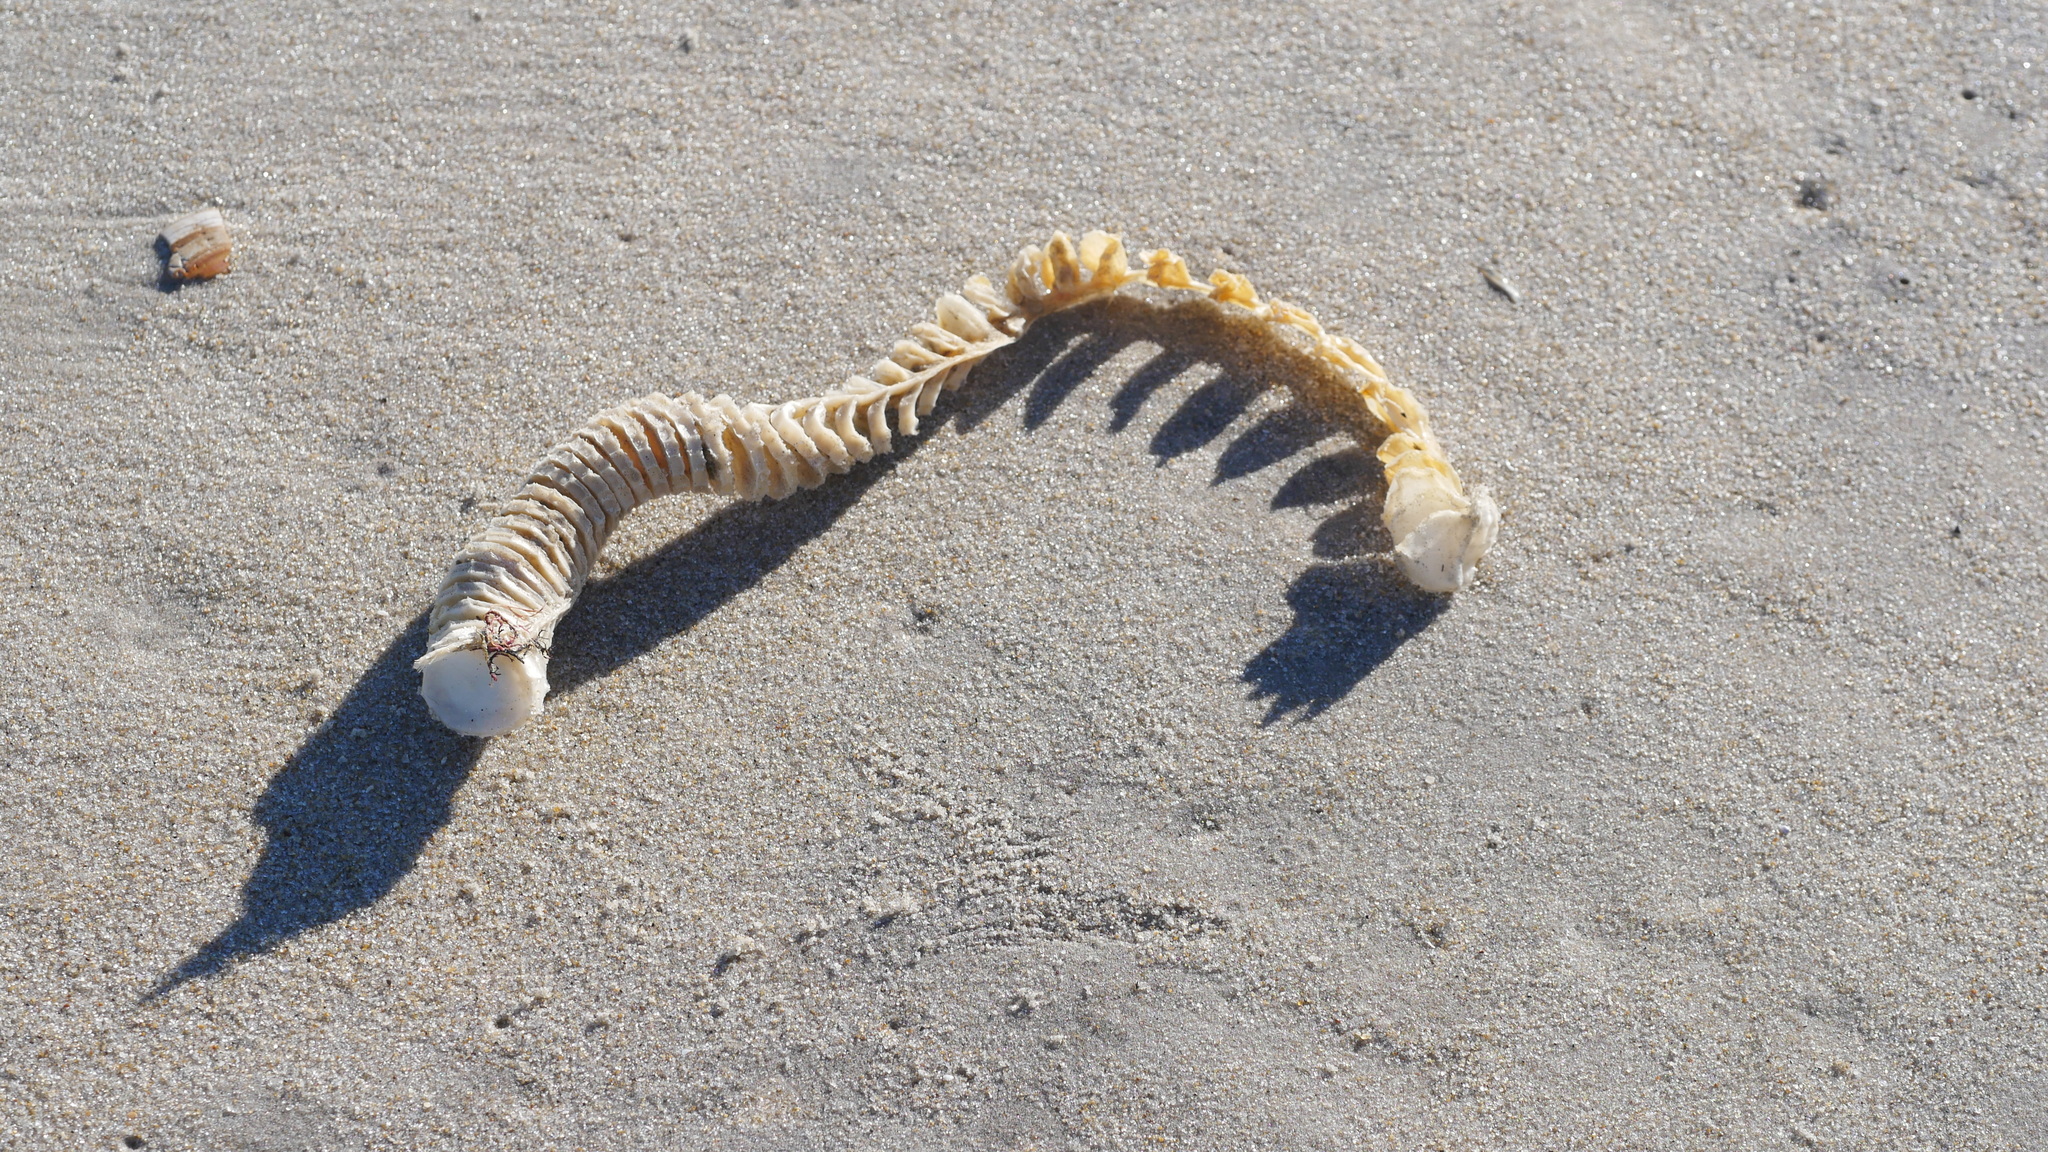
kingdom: Animalia
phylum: Mollusca
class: Gastropoda
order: Neogastropoda
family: Busyconidae
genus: Busycon
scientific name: Busycon carica
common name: Knobbed whelk
